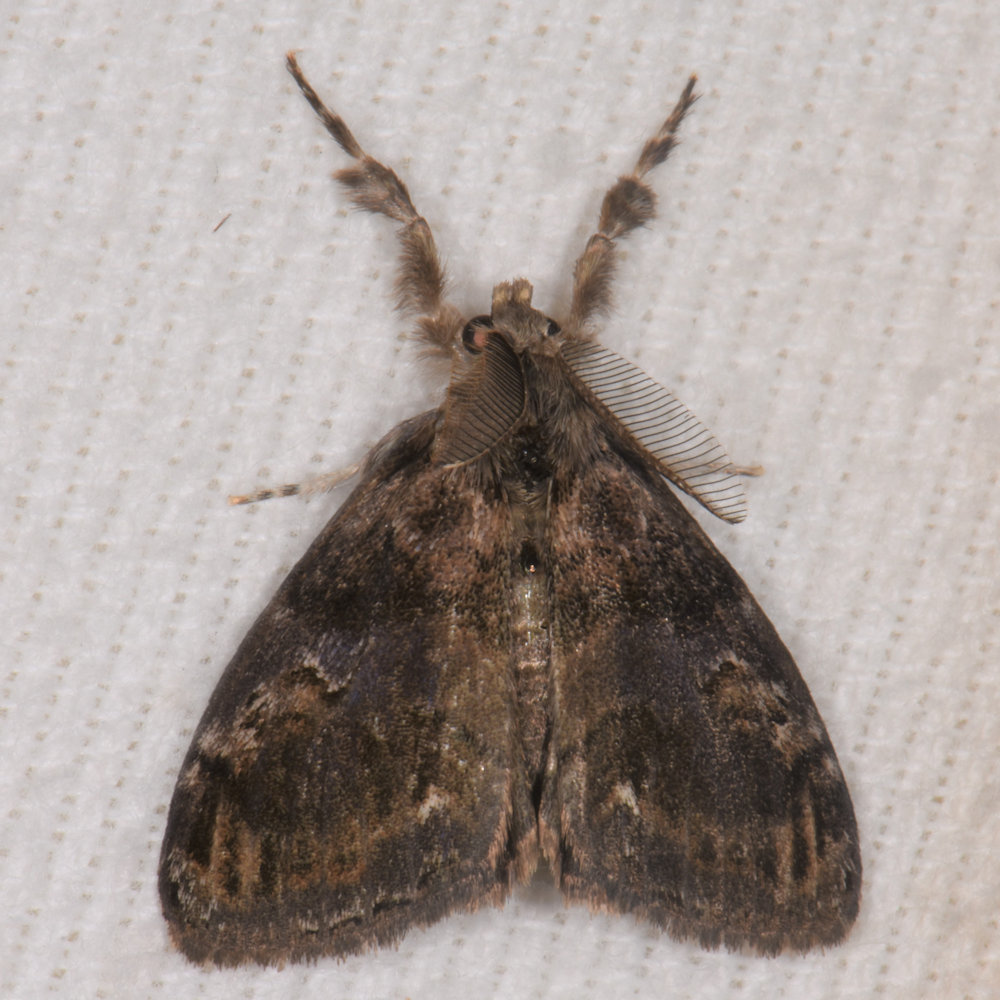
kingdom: Animalia
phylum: Arthropoda
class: Insecta
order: Lepidoptera
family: Erebidae
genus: Orgyia
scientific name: Orgyia definita
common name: Definite tussock moth
